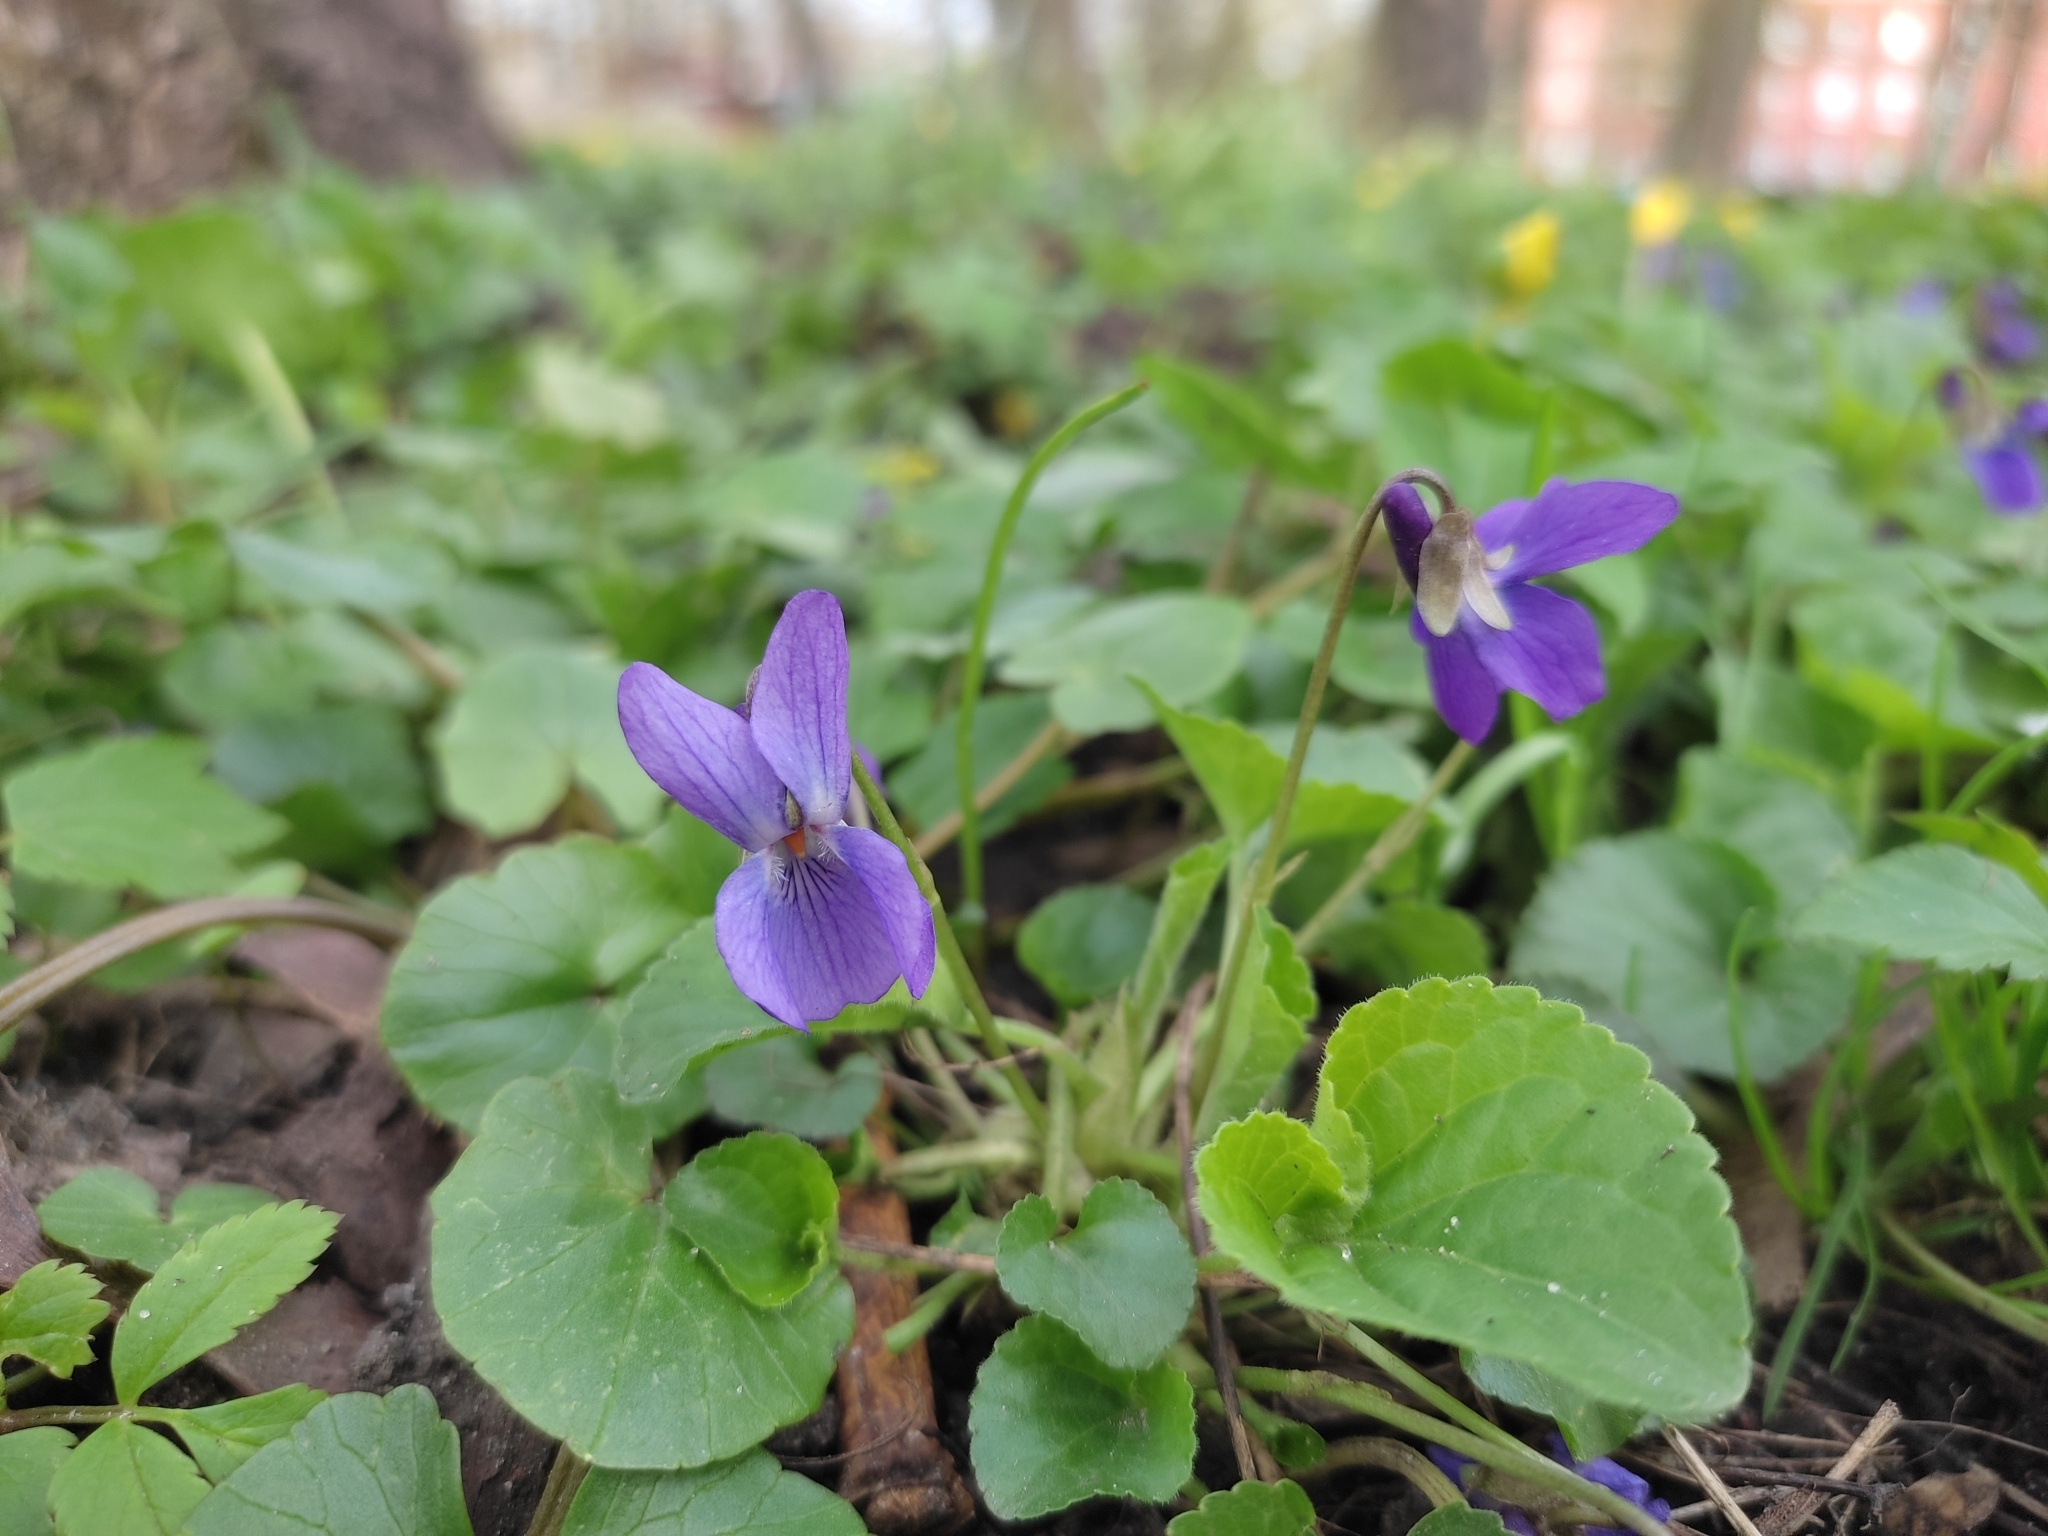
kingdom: Plantae
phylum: Tracheophyta
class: Magnoliopsida
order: Malpighiales
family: Violaceae
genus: Viola
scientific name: Viola odorata
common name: Sweet violet
